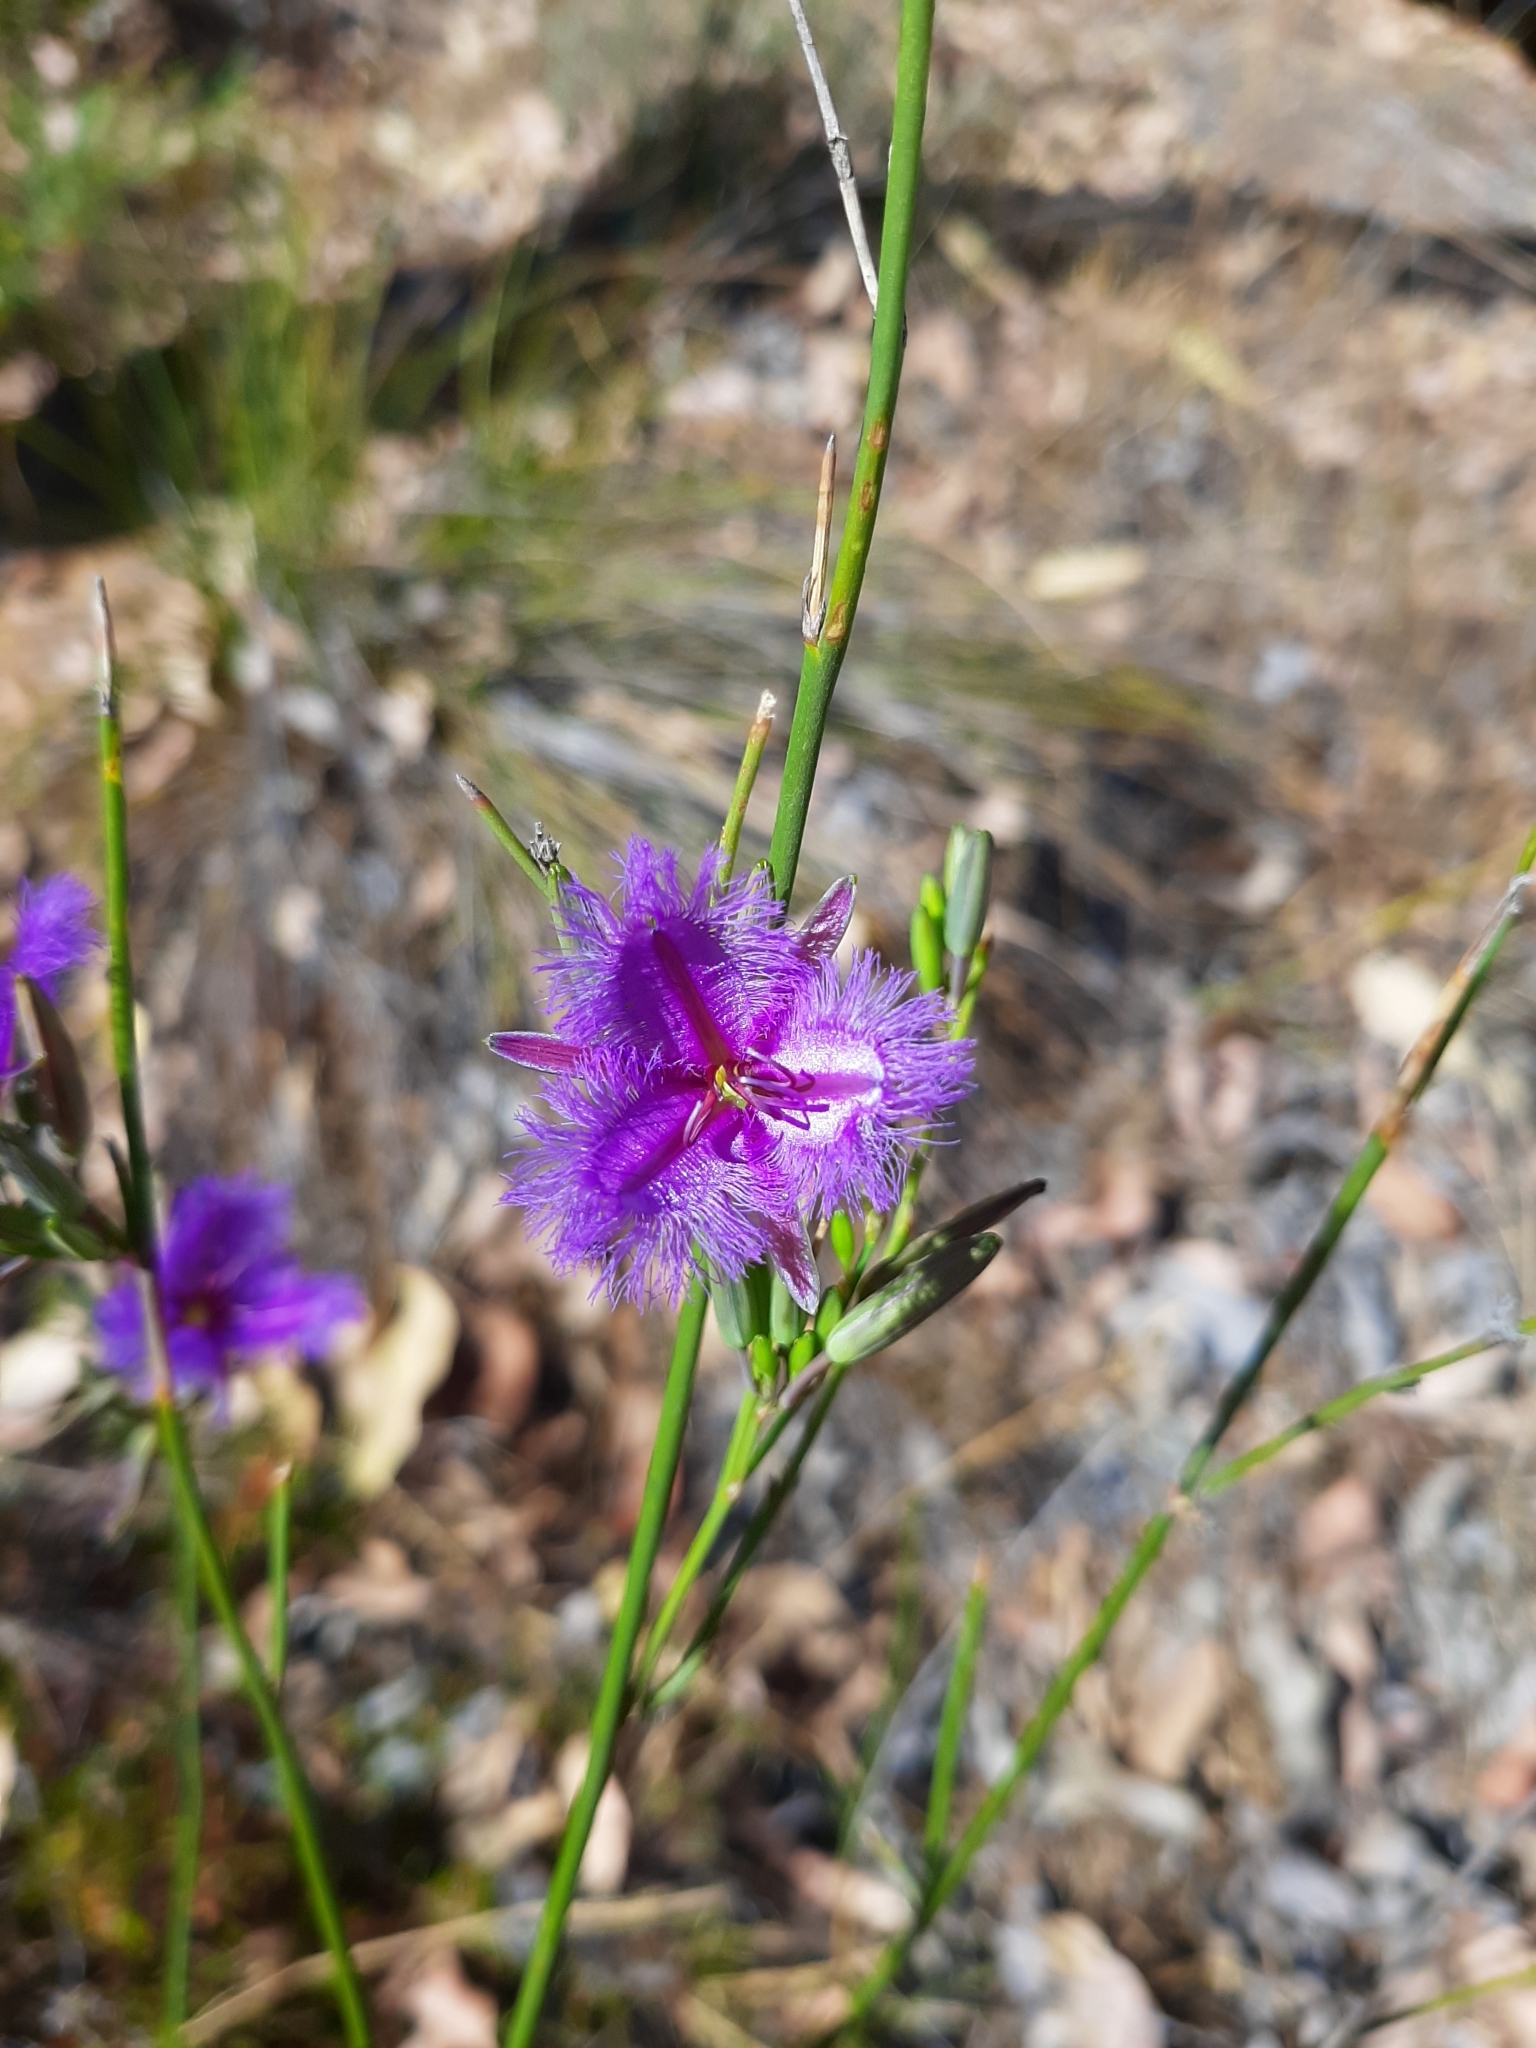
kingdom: Plantae
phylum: Tracheophyta
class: Liliopsida
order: Asparagales
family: Asparagaceae
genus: Thysanotus
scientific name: Thysanotus sparteus
